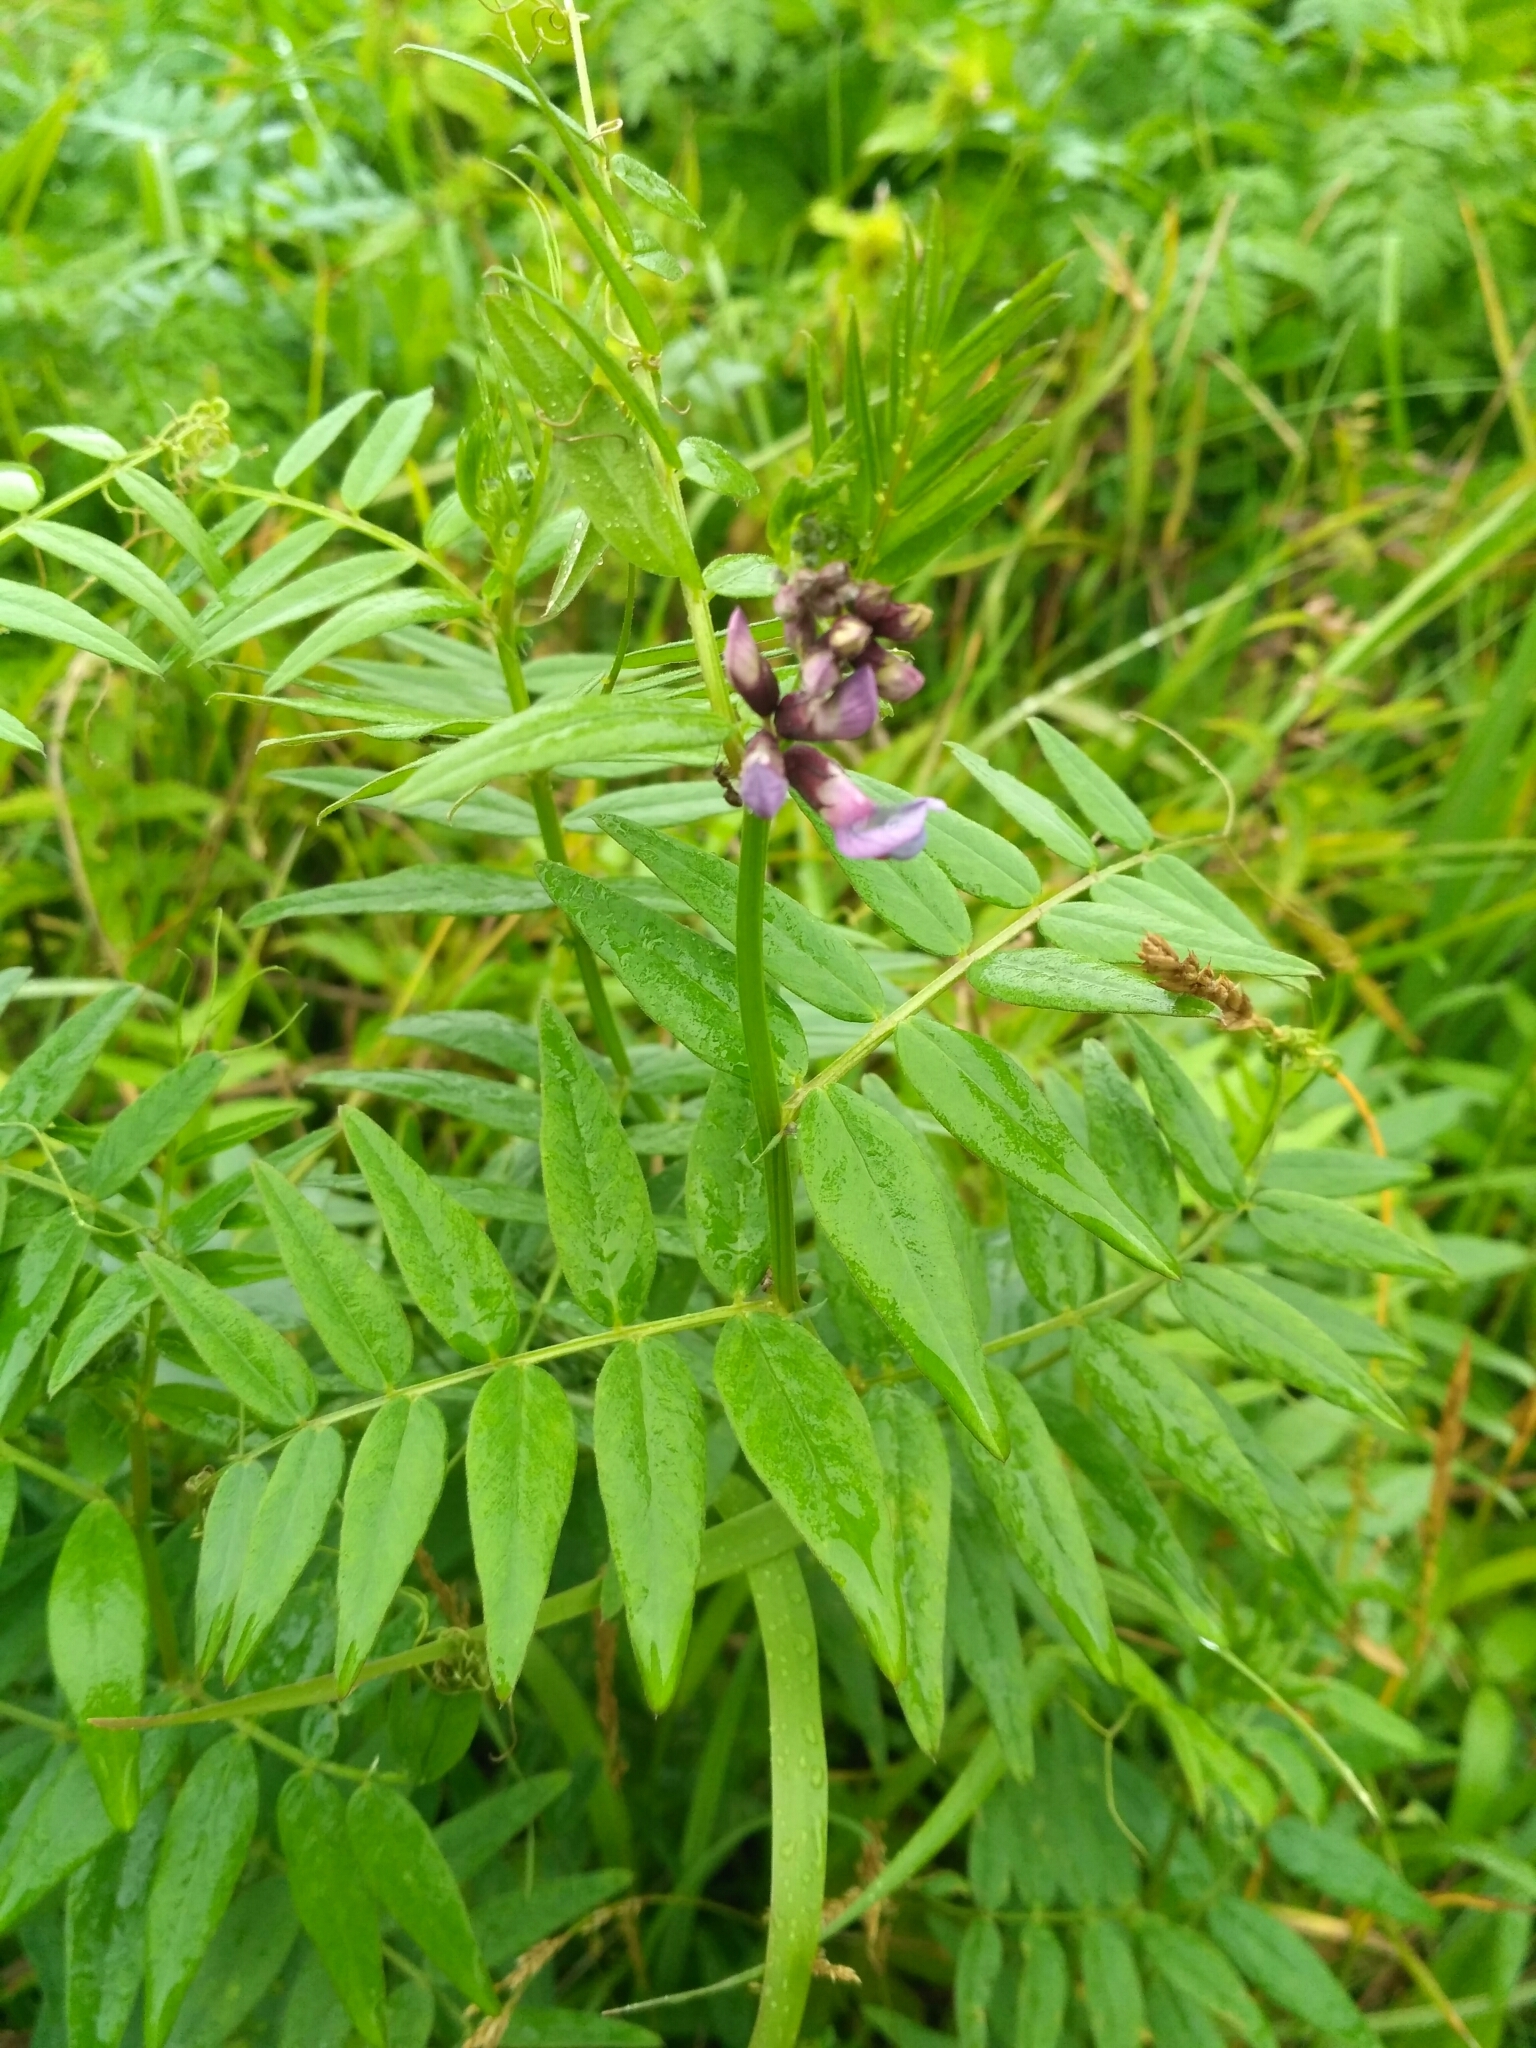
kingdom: Plantae
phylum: Tracheophyta
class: Magnoliopsida
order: Fabales
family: Fabaceae
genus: Vicia
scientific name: Vicia sepium
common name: Bush vetch
